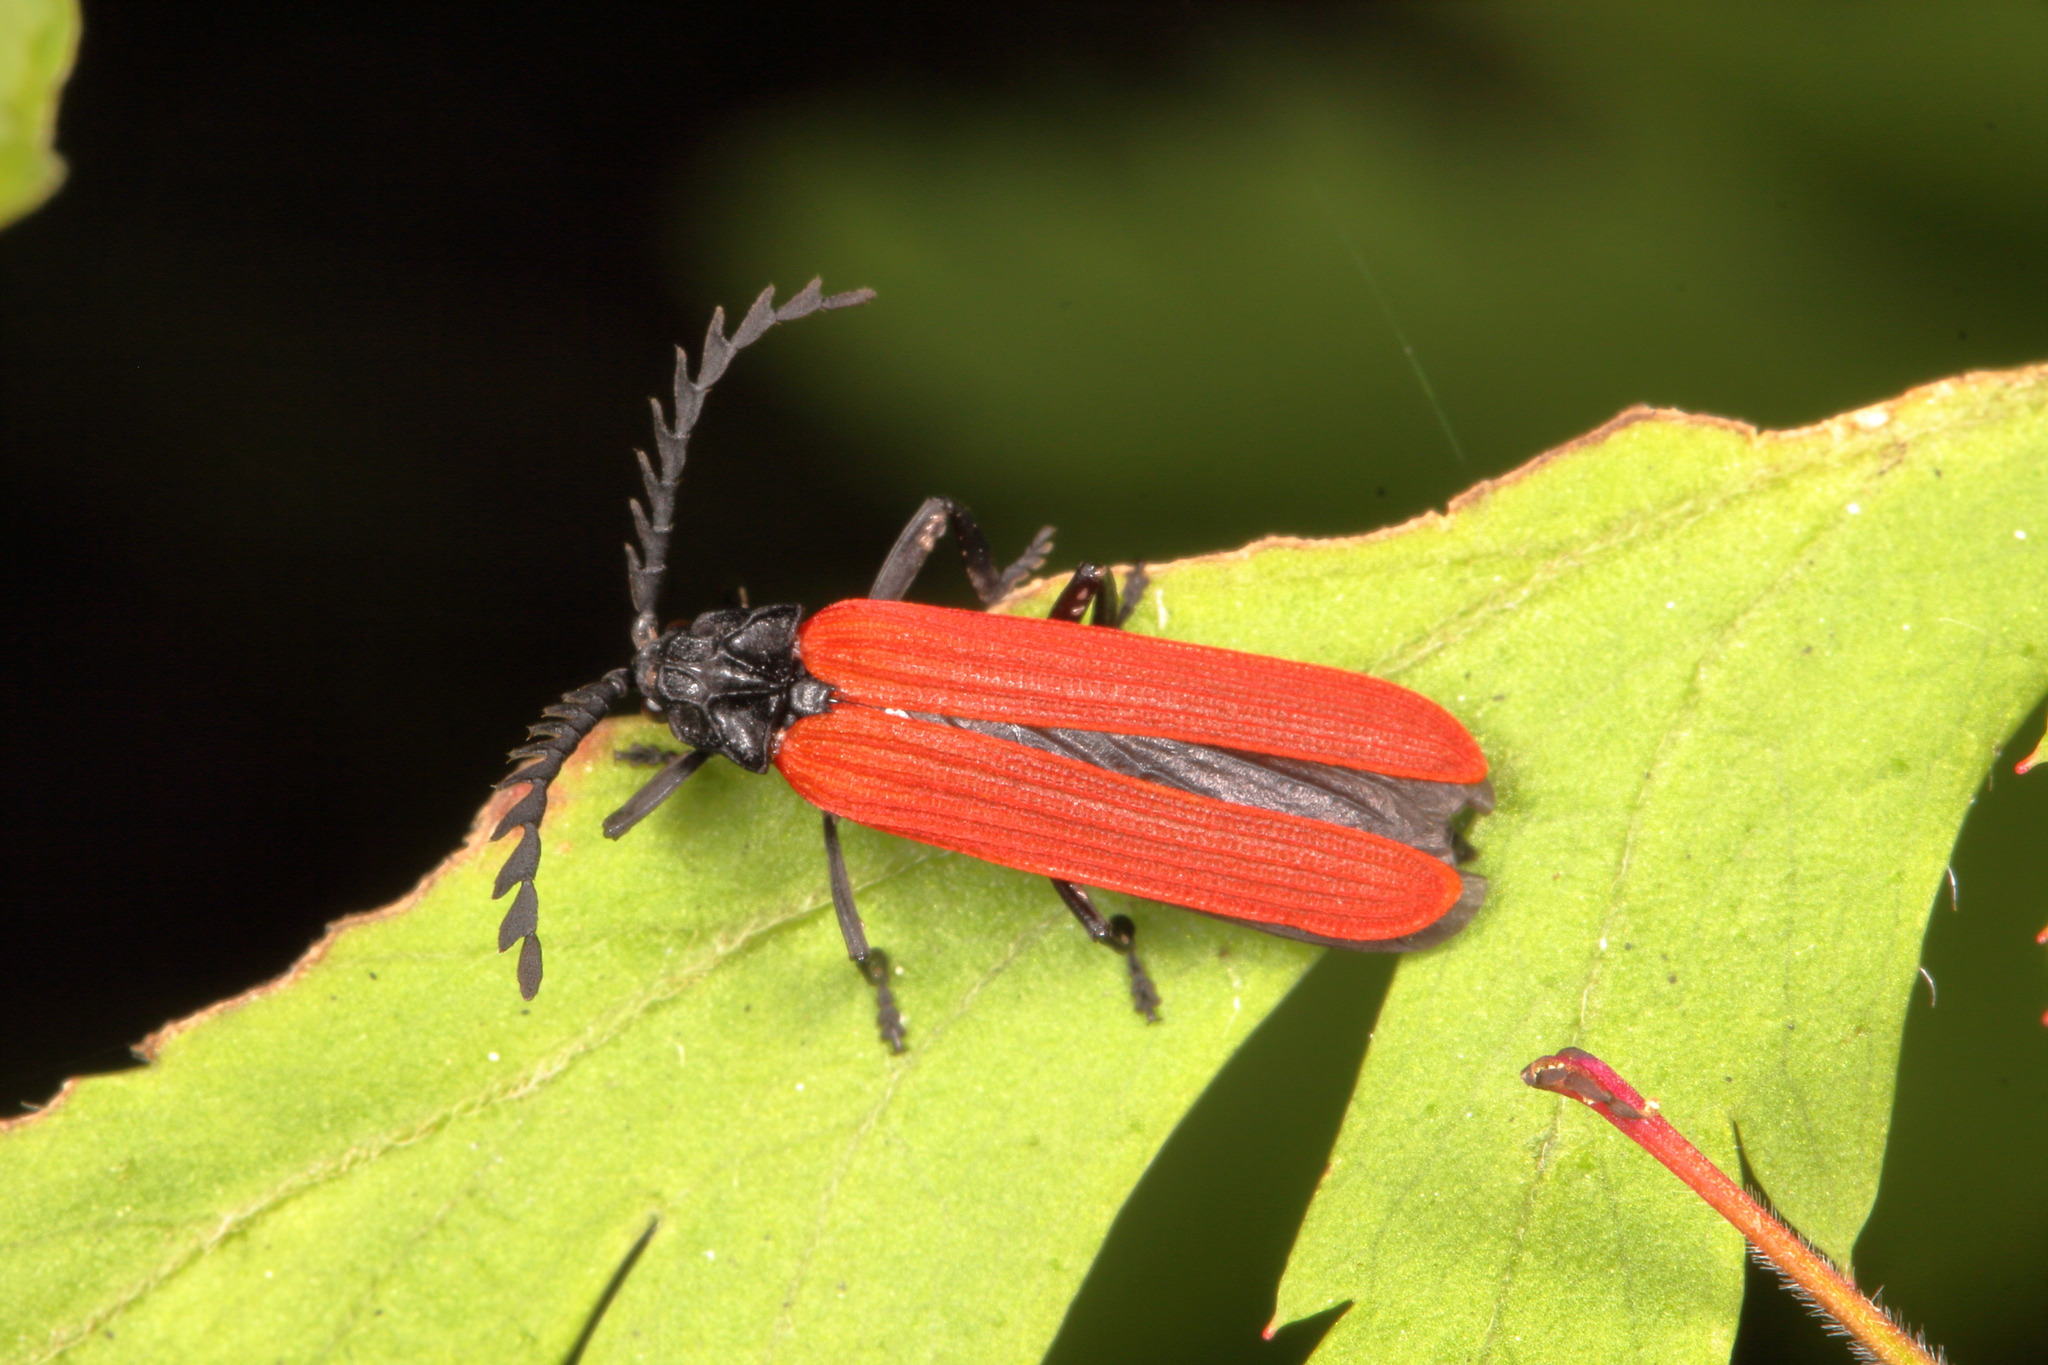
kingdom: Animalia
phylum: Arthropoda
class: Insecta
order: Coleoptera
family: Lycidae
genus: Porrostoma
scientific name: Porrostoma rufipenne
